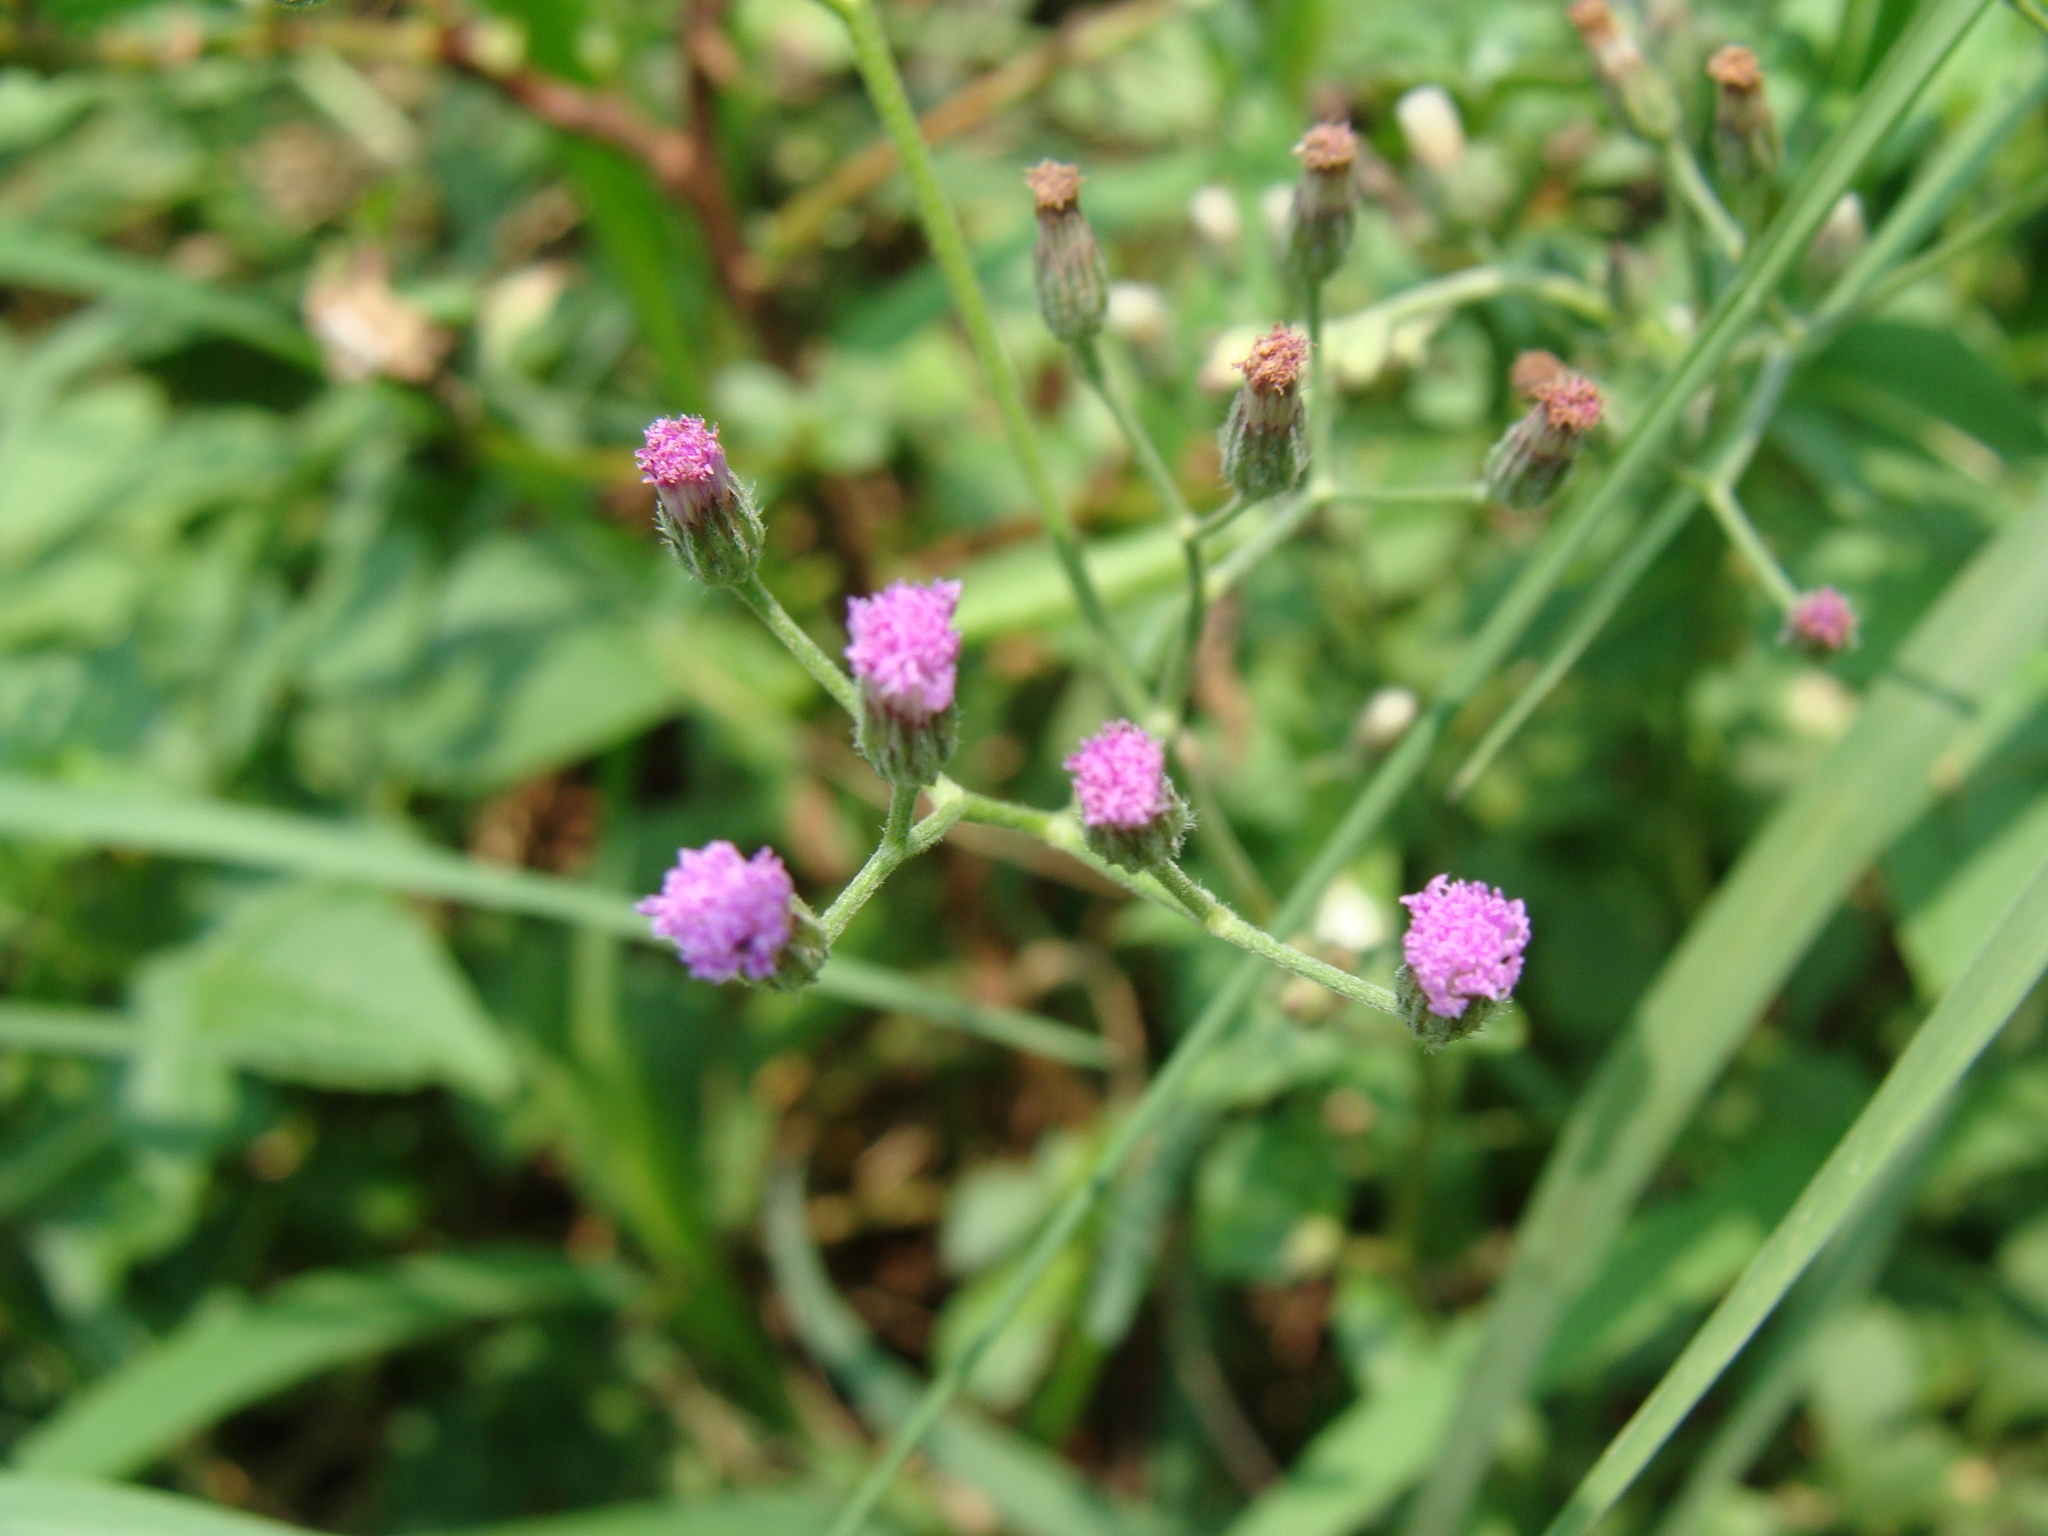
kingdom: Plantae
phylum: Tracheophyta
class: Magnoliopsida
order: Asterales
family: Asteraceae
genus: Cyanthillium
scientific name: Cyanthillium cinereum
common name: Little ironweed
